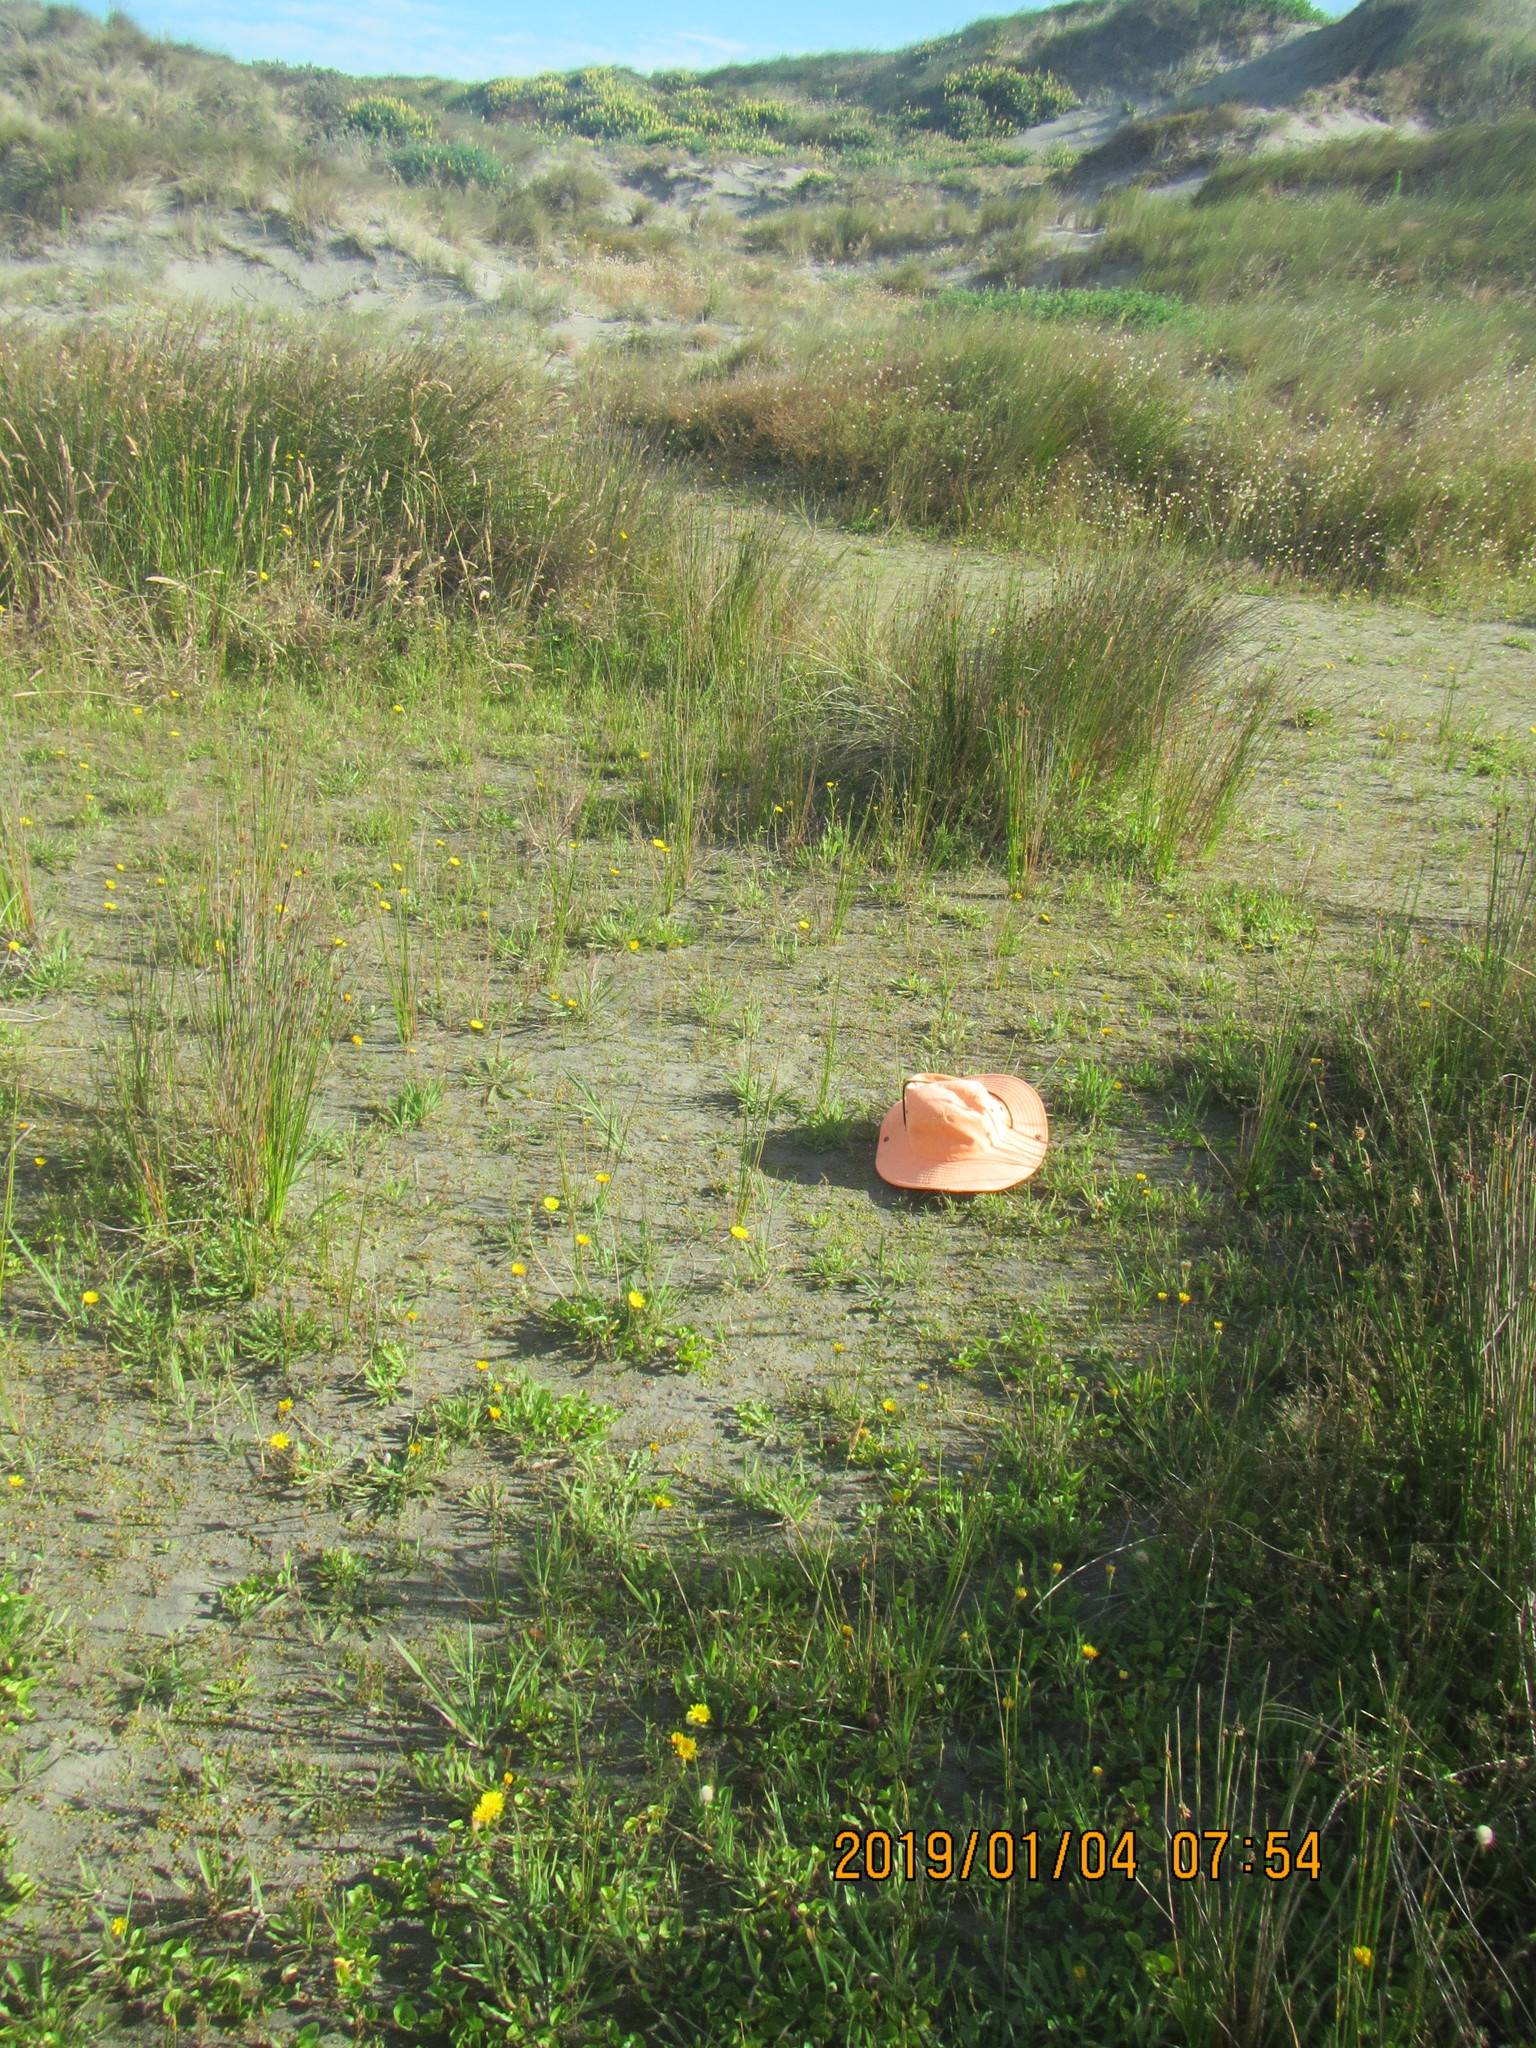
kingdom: Plantae
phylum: Tracheophyta
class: Magnoliopsida
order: Asterales
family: Goodeniaceae
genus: Goodenia
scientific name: Goodenia heenanii
